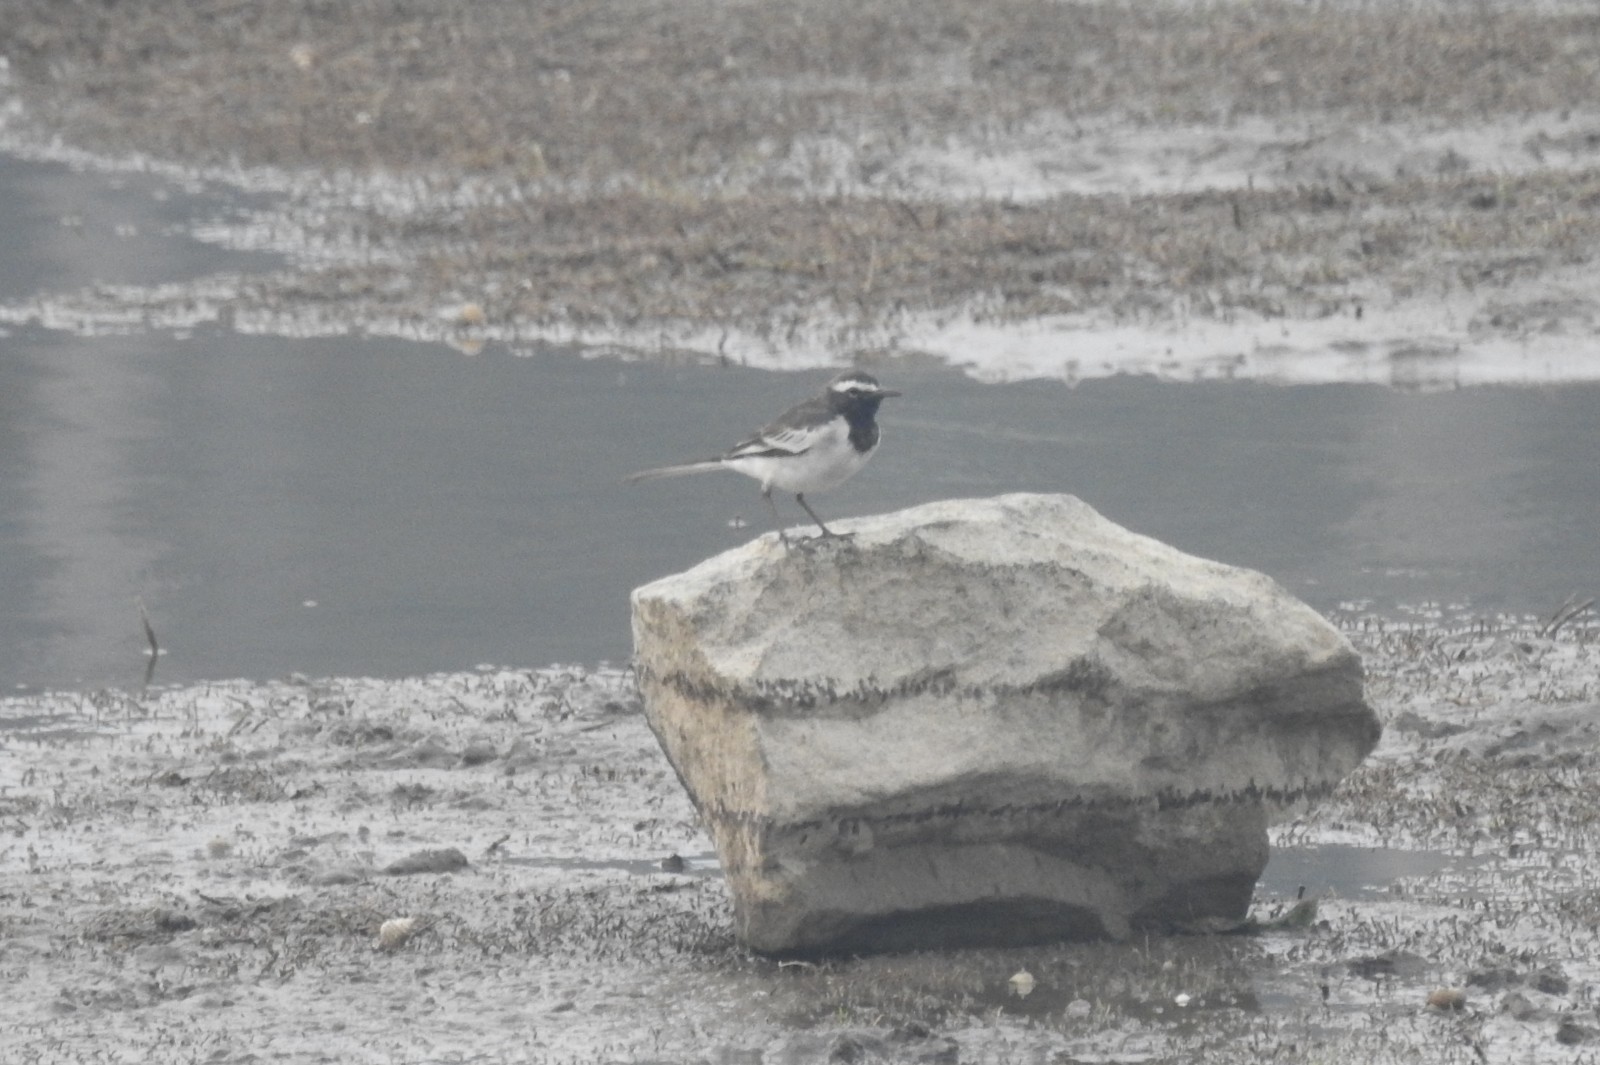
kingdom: Animalia
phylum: Chordata
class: Aves
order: Passeriformes
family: Motacillidae
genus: Motacilla
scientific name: Motacilla maderaspatensis
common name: White-browed wagtail
